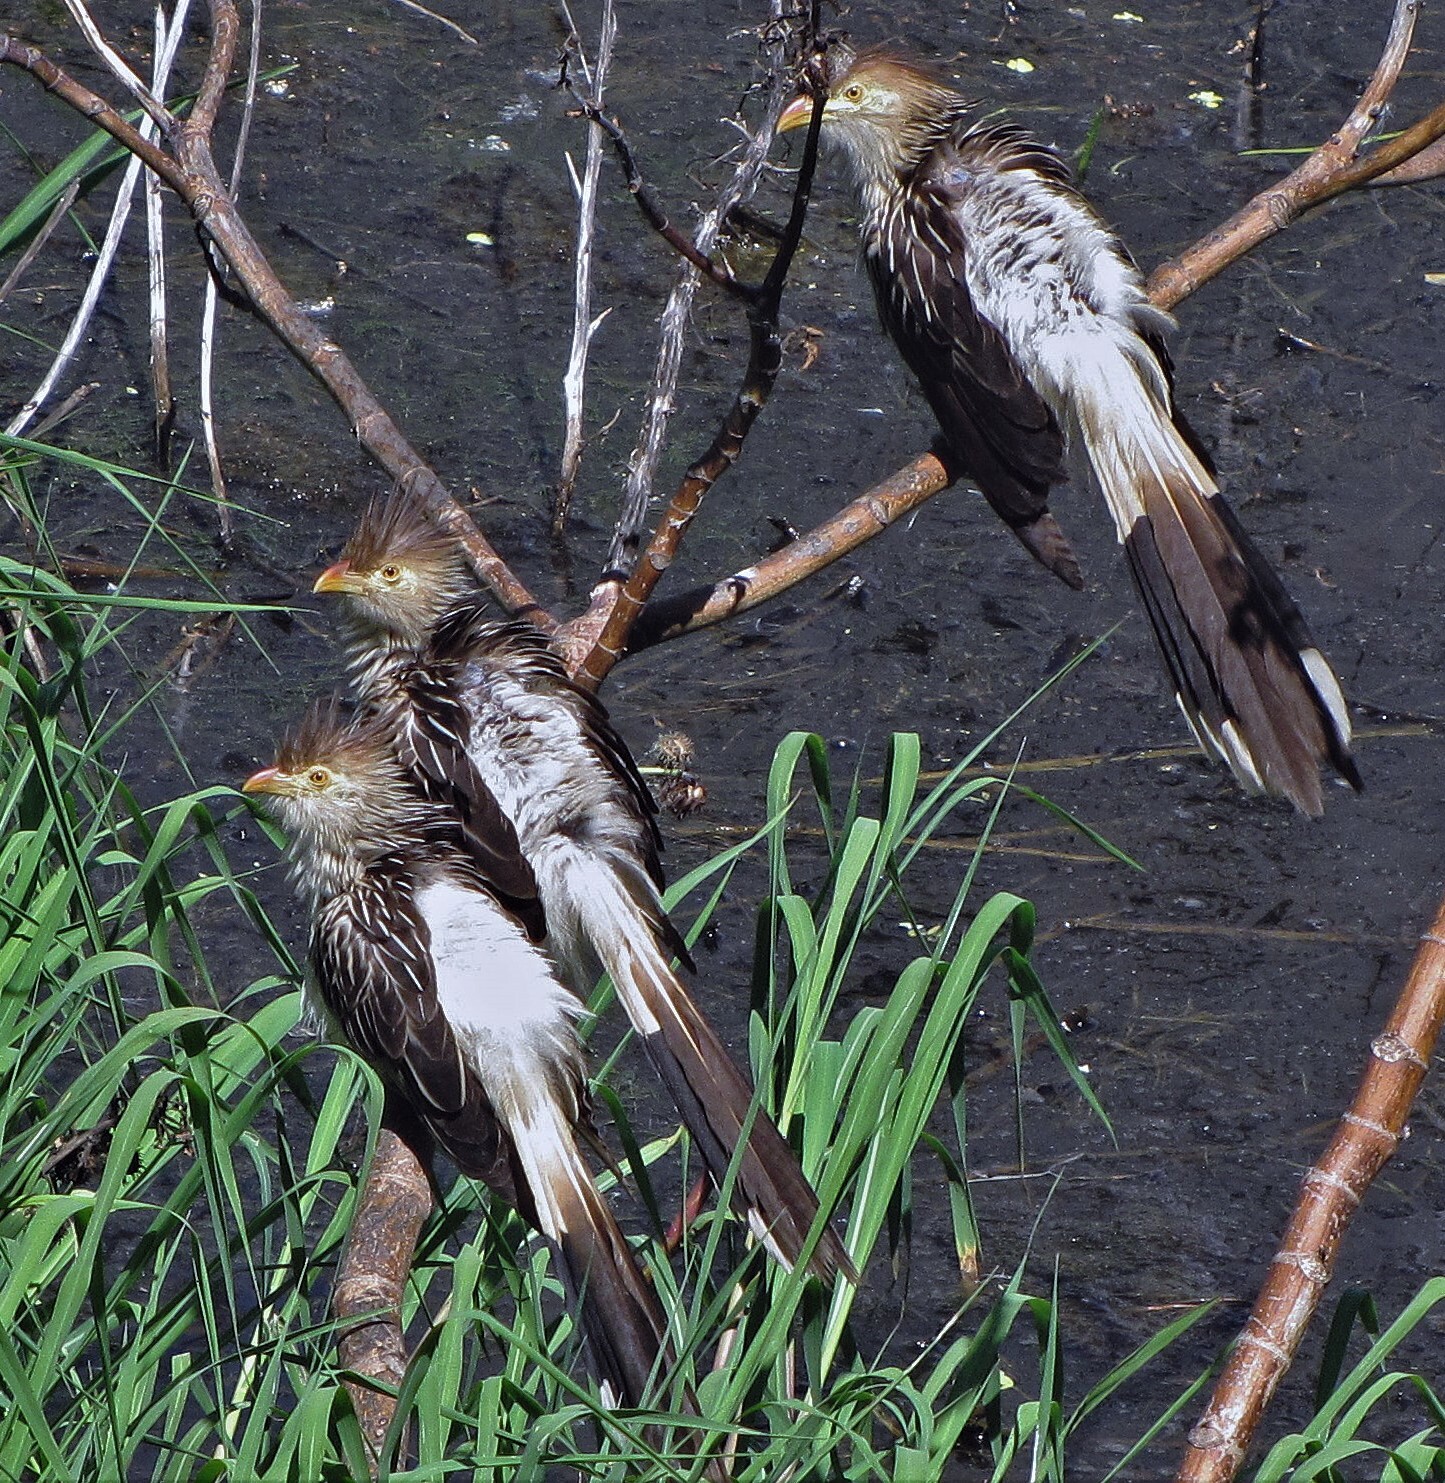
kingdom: Animalia
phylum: Chordata
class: Aves
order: Cuculiformes
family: Cuculidae
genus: Guira
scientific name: Guira guira
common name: Guira cuckoo
